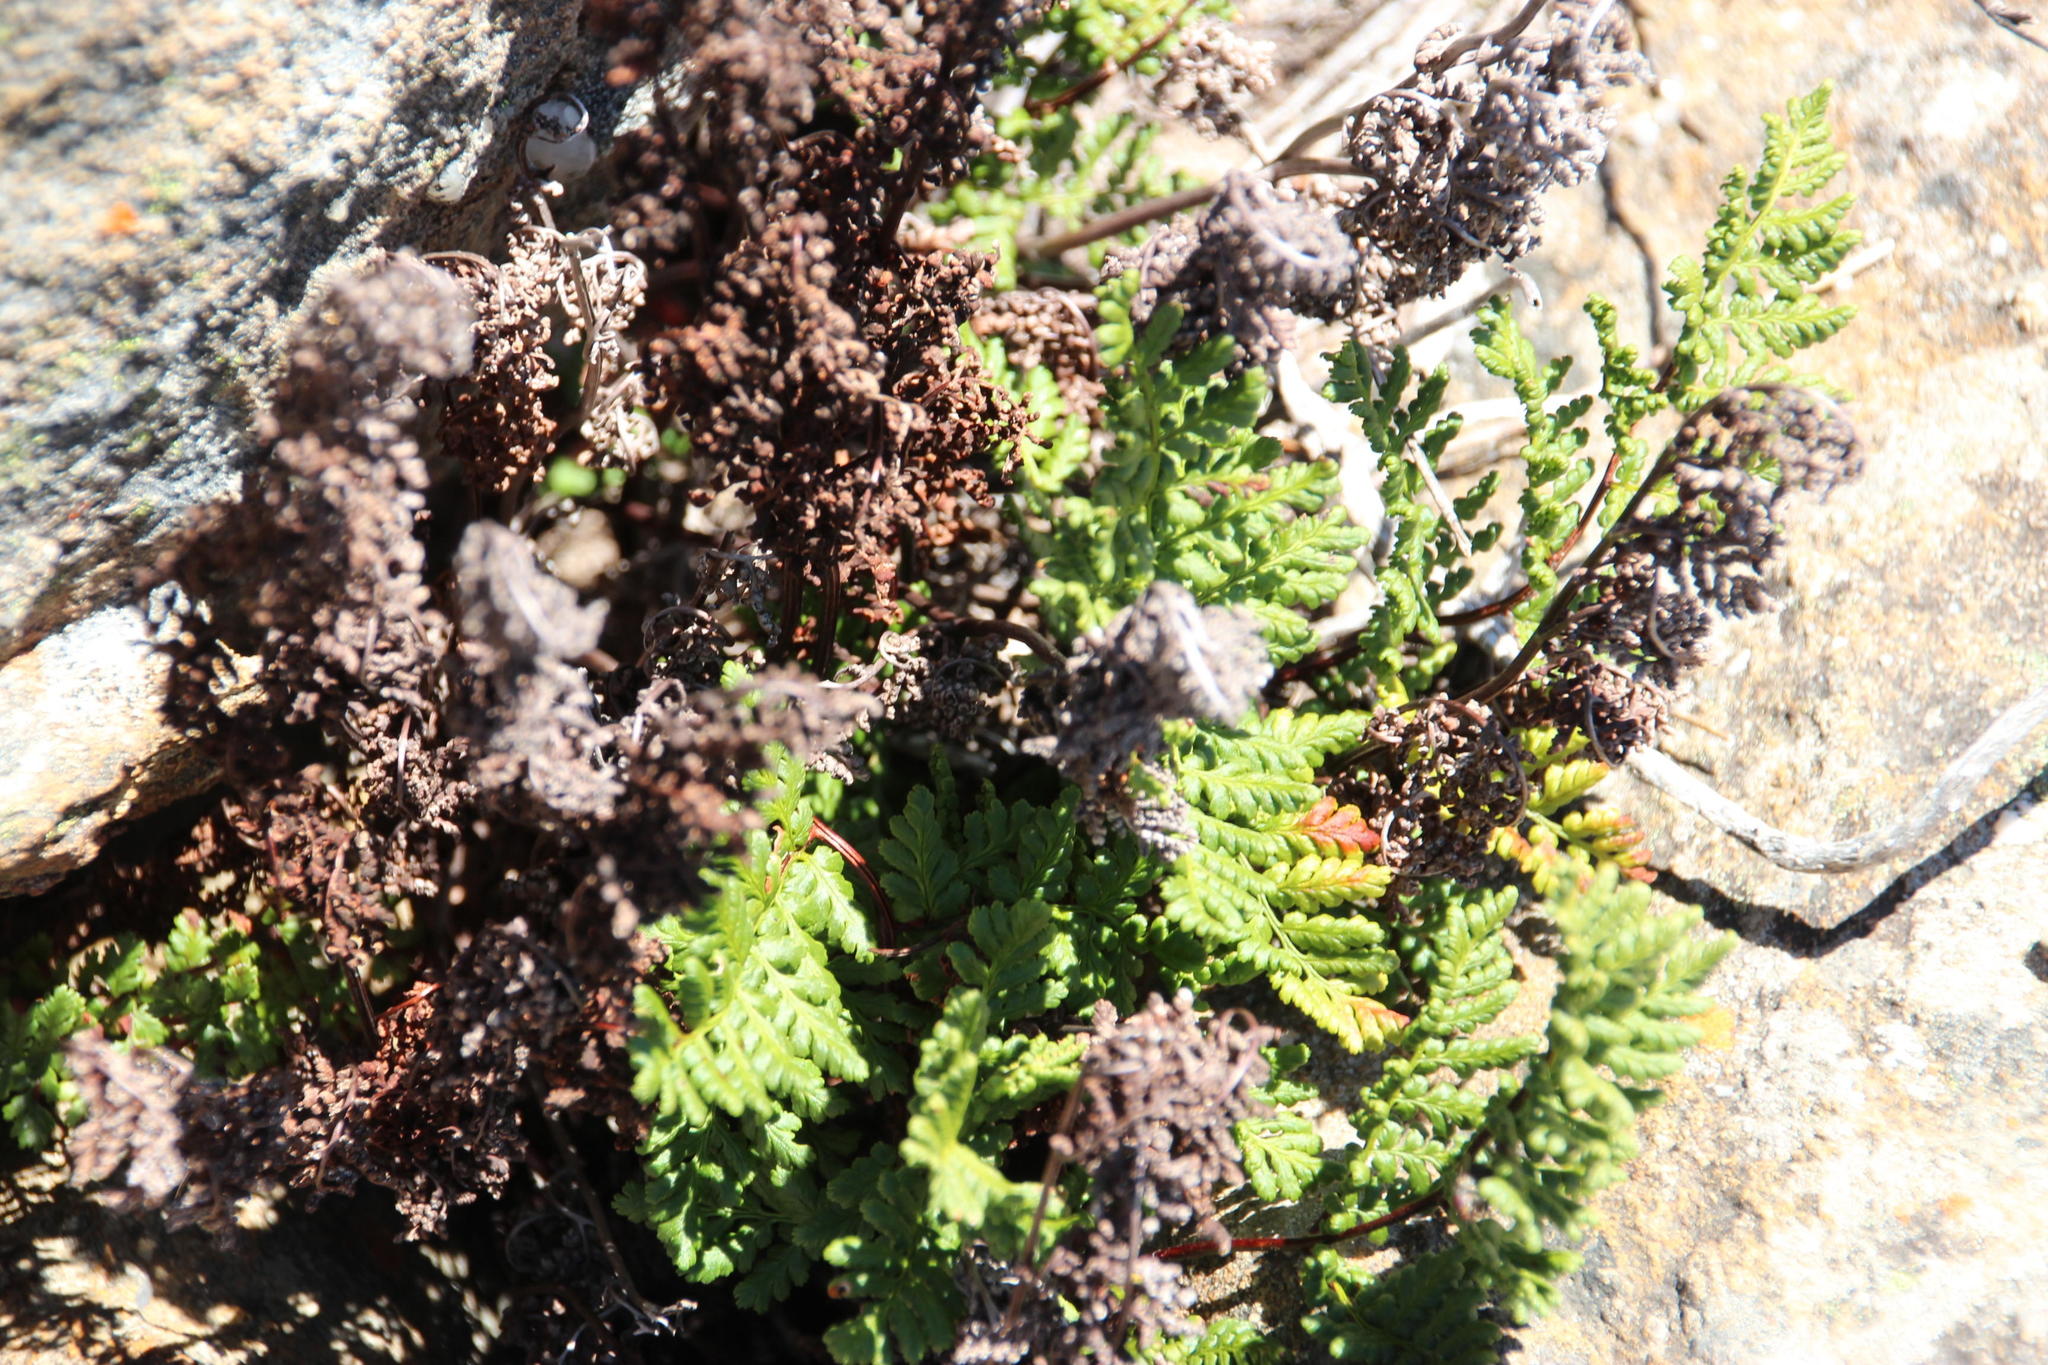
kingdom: Plantae
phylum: Tracheophyta
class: Polypodiopsida
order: Polypodiales
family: Pteridaceae
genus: Cheilanthes
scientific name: Cheilanthes multifida
